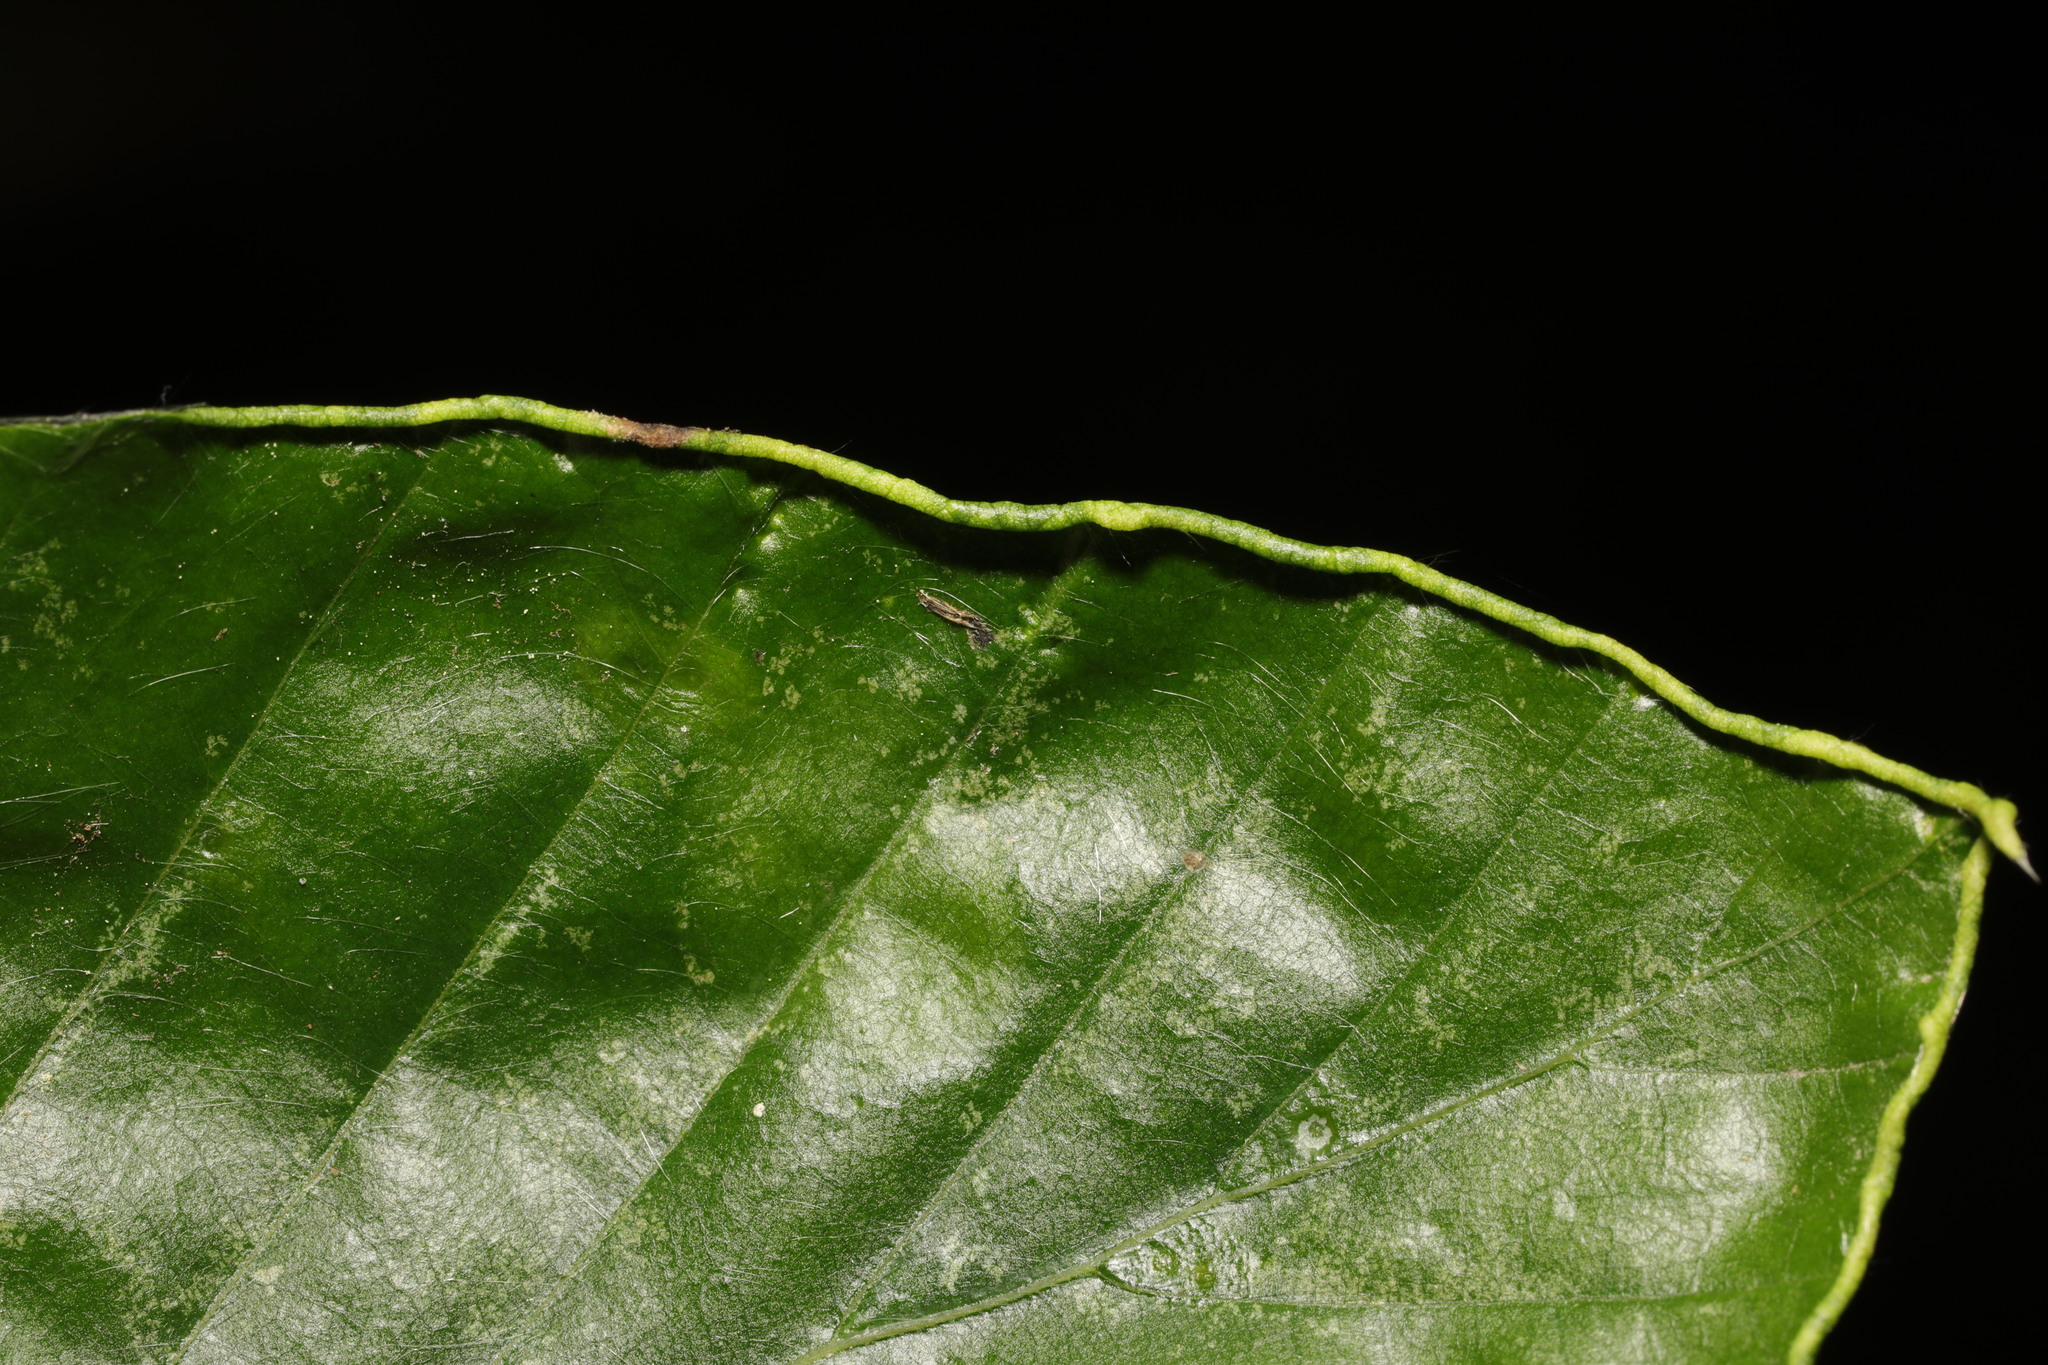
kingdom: Animalia
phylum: Arthropoda
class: Arachnida
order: Trombidiformes
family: Eriophyidae
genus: Acalitus
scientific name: Acalitus stenaspis
